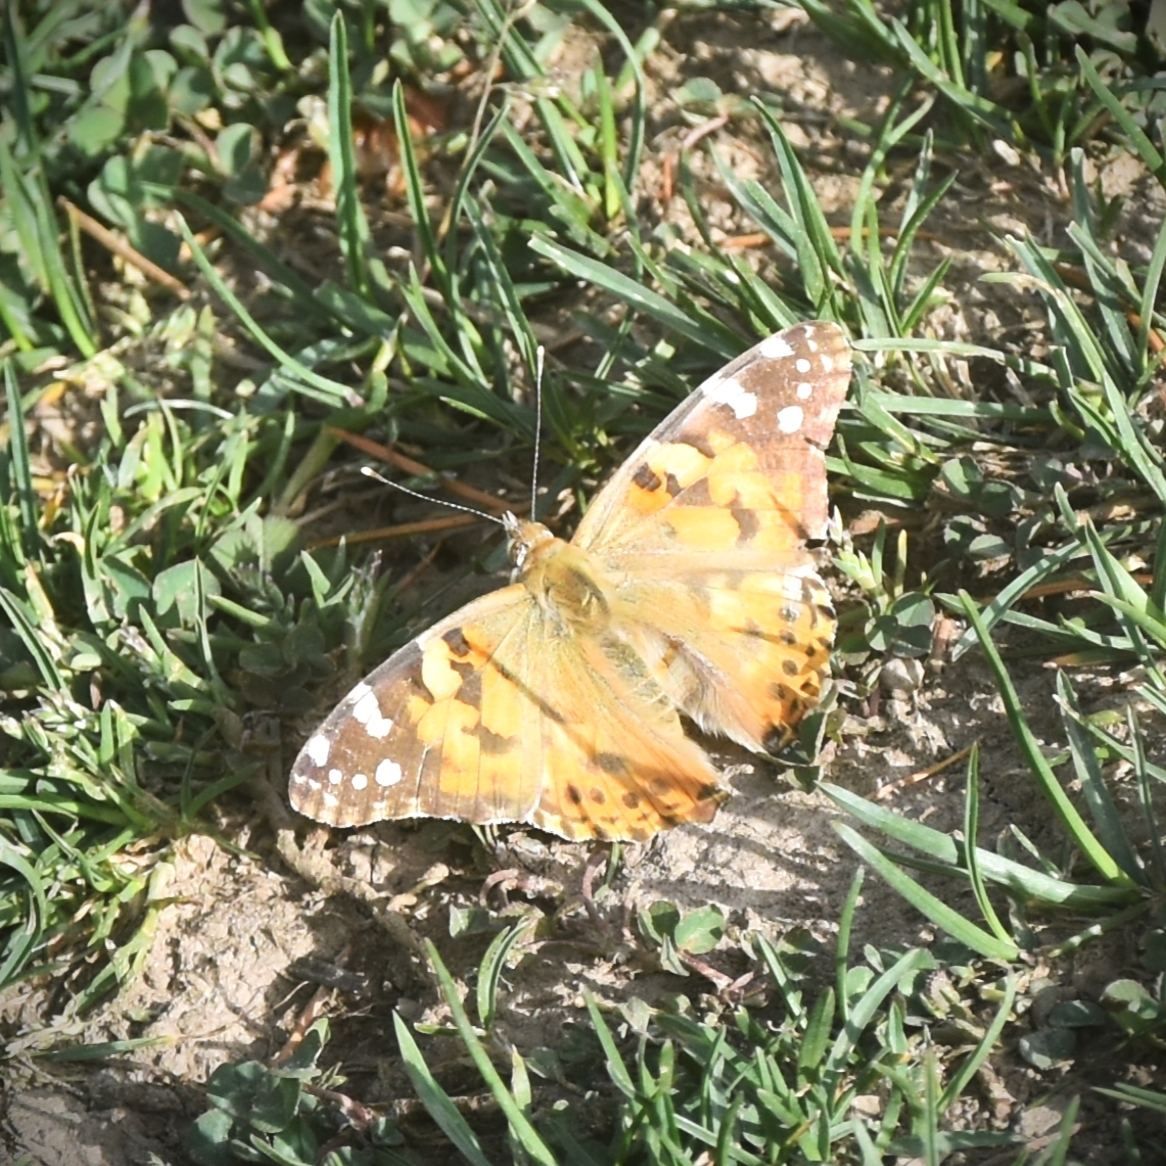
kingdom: Animalia
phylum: Arthropoda
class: Insecta
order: Lepidoptera
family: Nymphalidae
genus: Vanessa
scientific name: Vanessa cardui
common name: Painted lady
